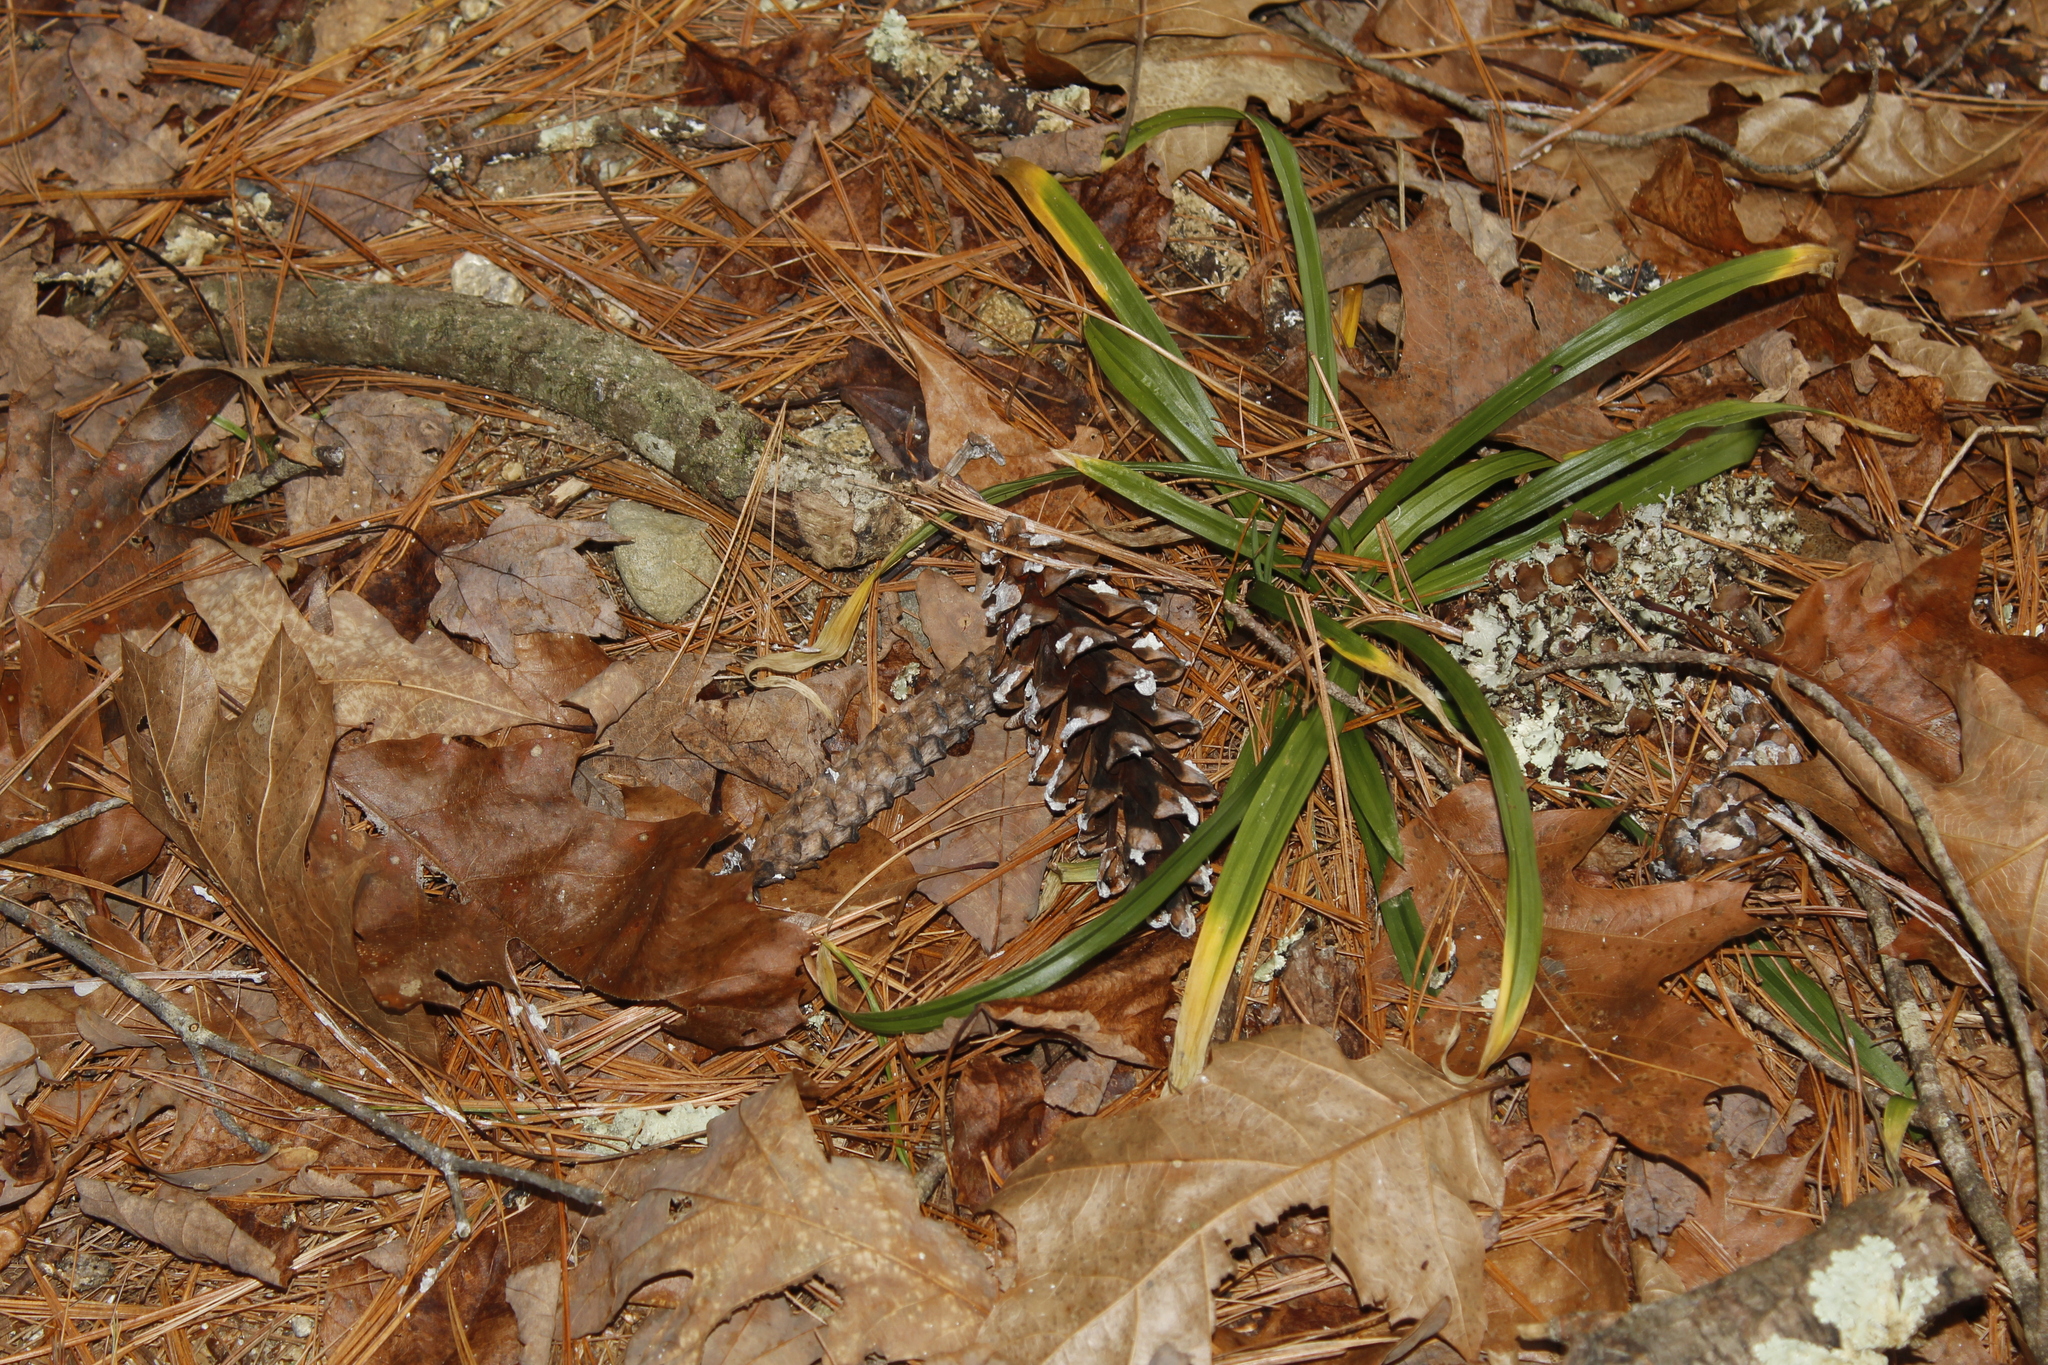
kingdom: Plantae
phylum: Tracheophyta
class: Pinopsida
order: Pinales
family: Pinaceae
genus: Pinus
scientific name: Pinus strobus
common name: Weymouth pine
